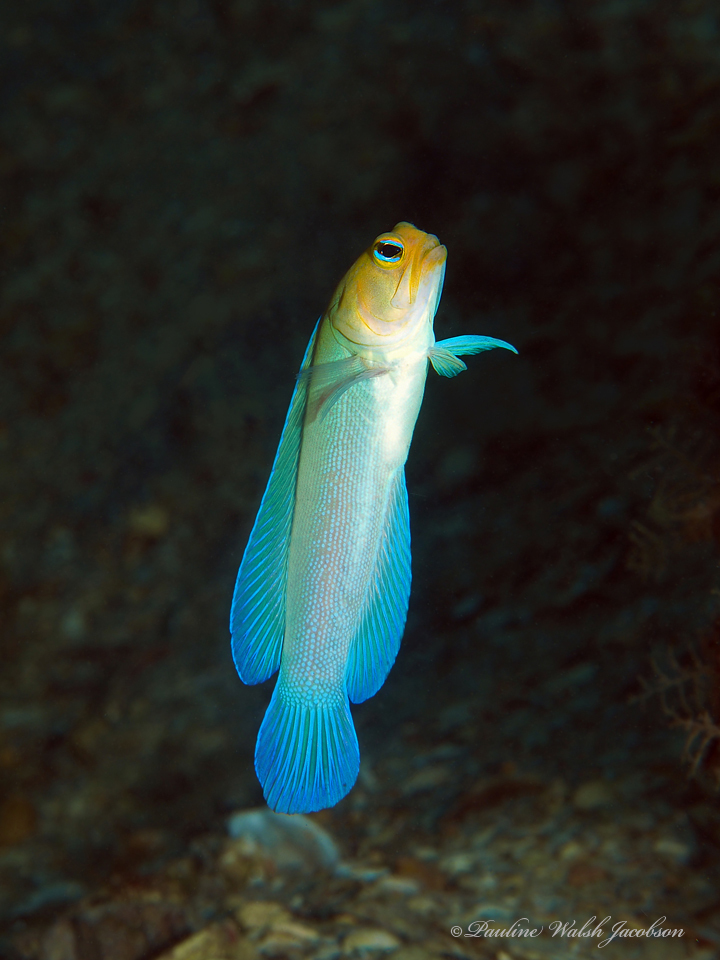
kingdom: Animalia
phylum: Chordata
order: Perciformes
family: Opistognathidae
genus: Opistognathus
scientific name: Opistognathus aurifrons
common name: Yellowhead jawfish
